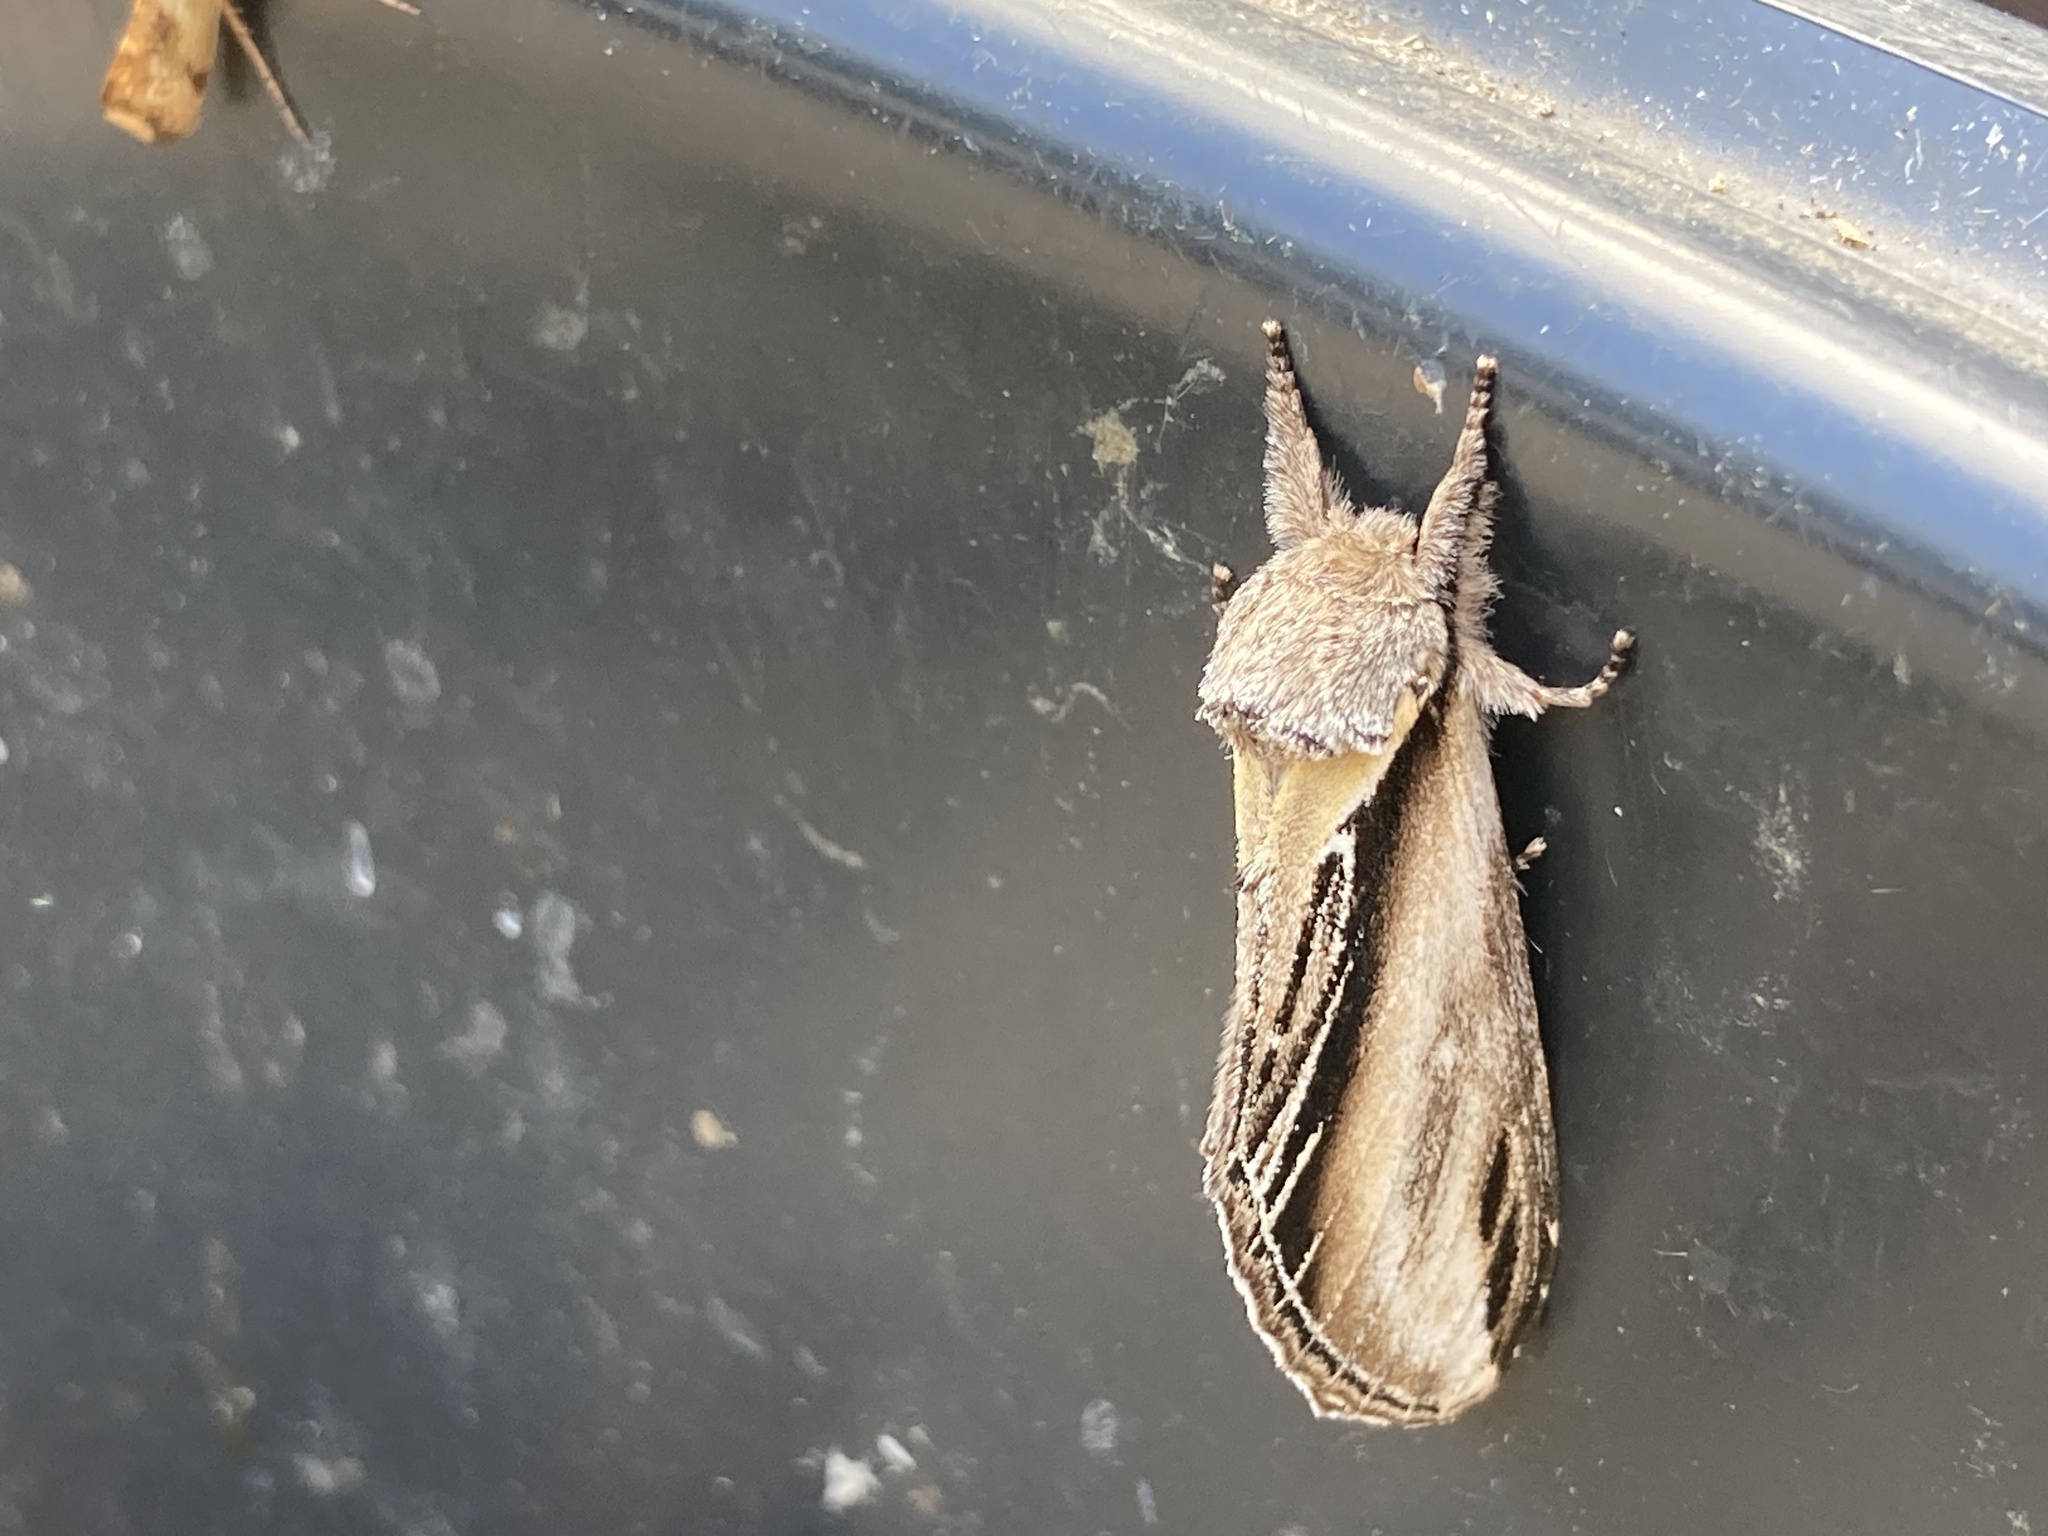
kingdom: Animalia
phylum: Arthropoda
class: Insecta
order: Lepidoptera
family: Notodontidae
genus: Pheosia
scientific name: Pheosia tremula
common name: Swallow prominent
